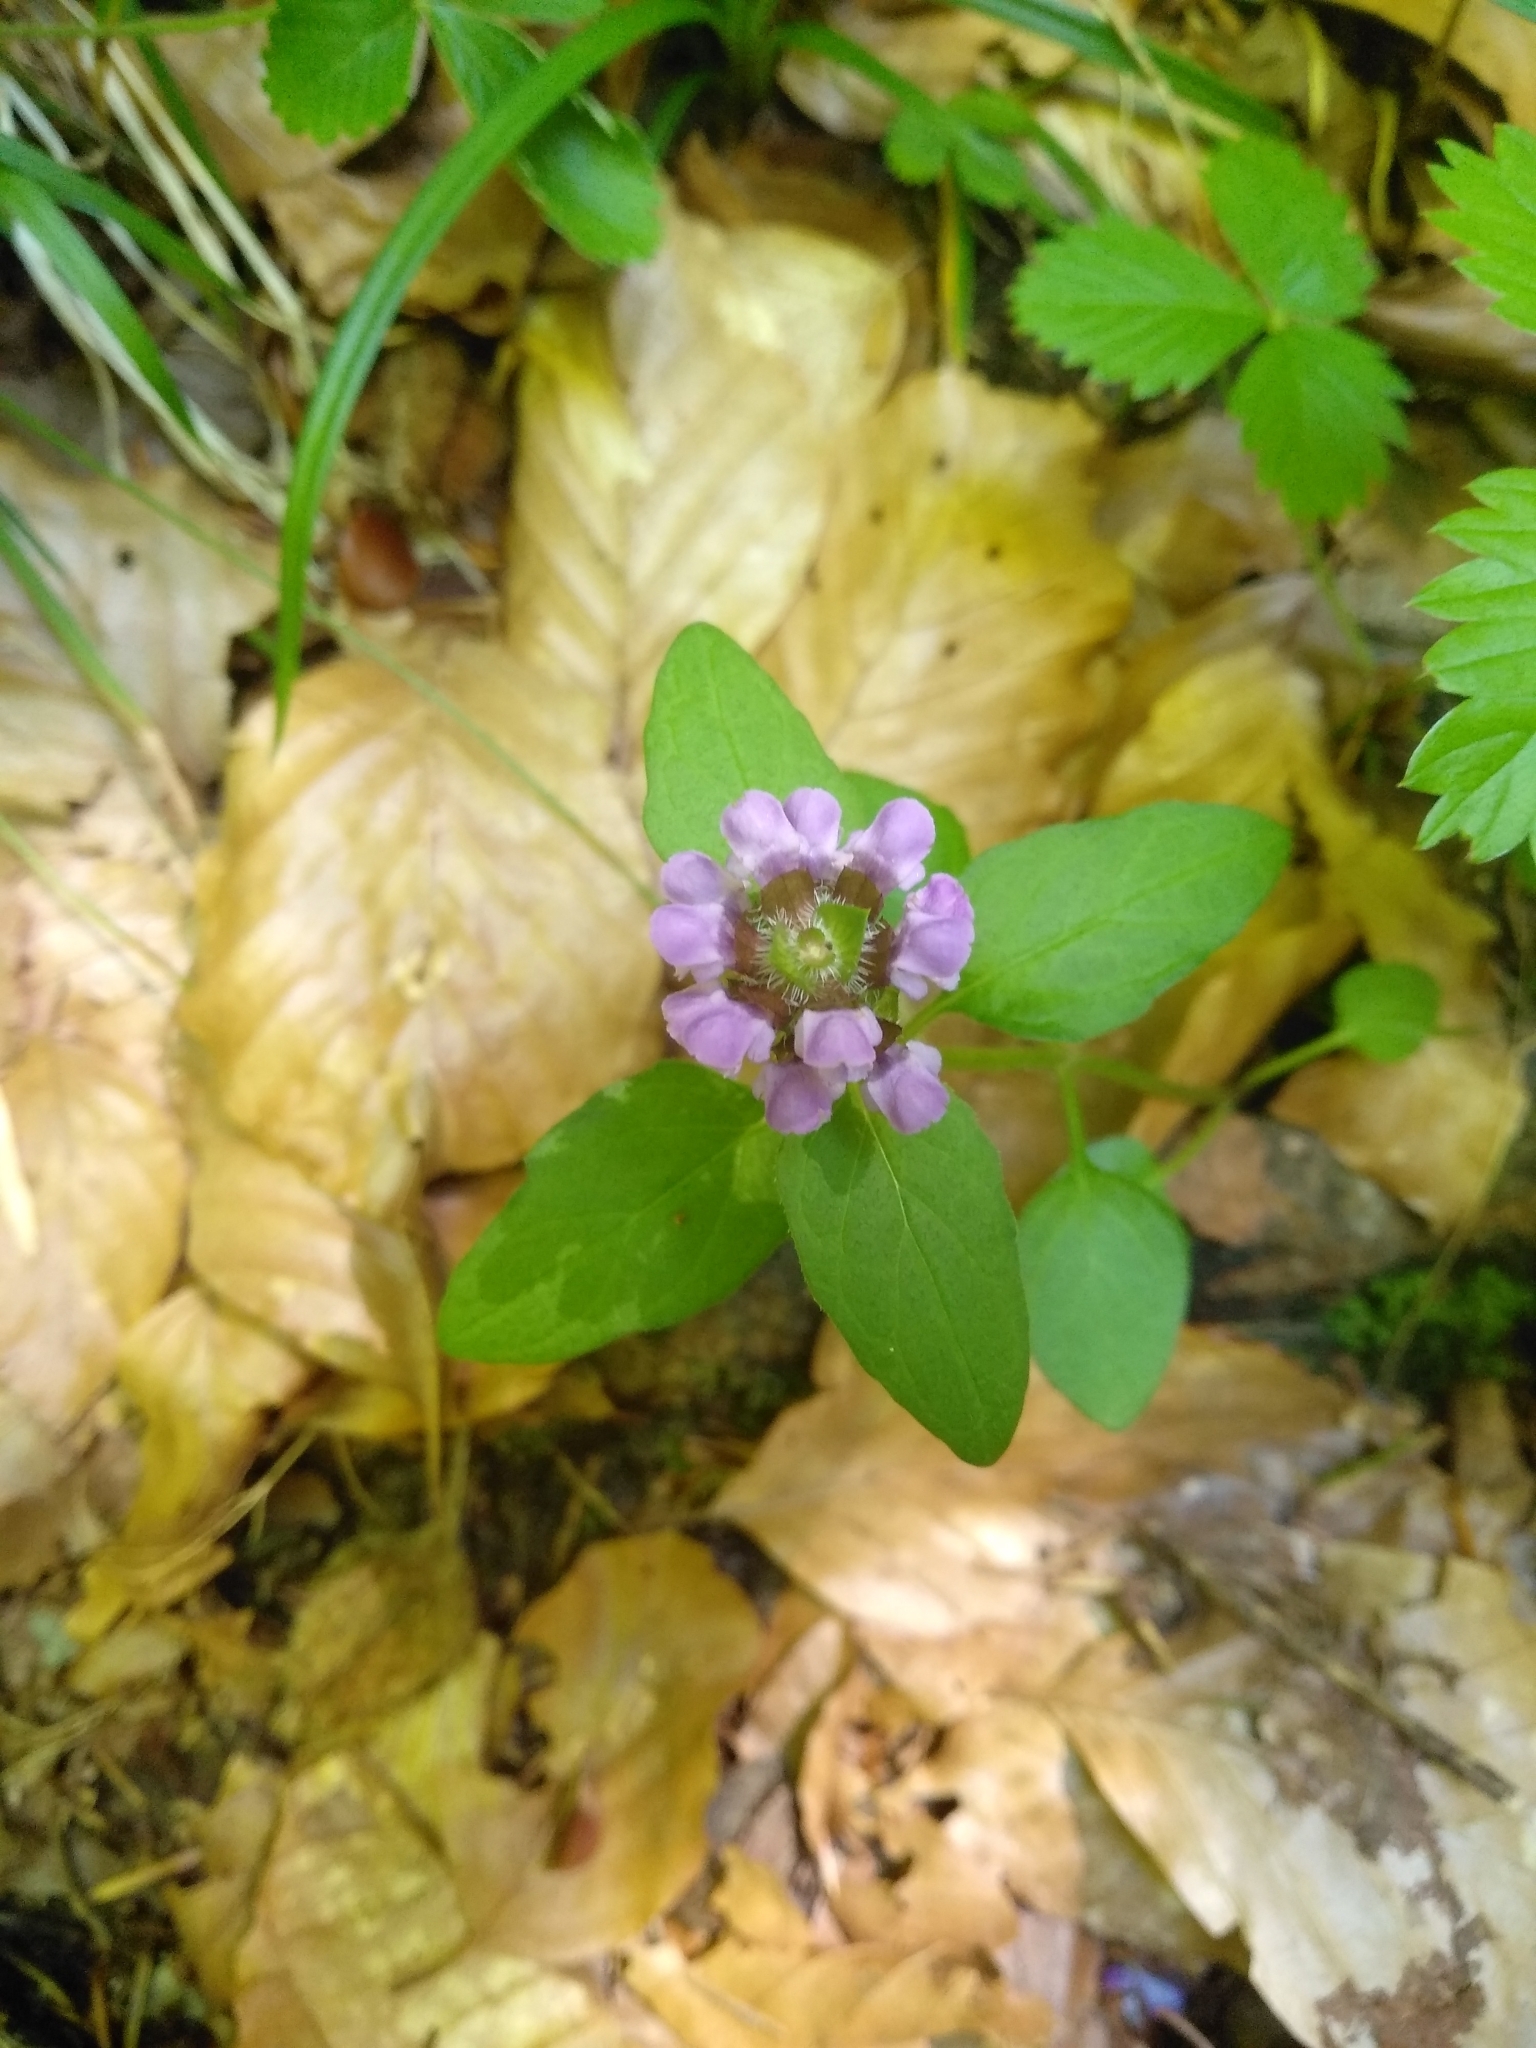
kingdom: Plantae
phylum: Tracheophyta
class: Magnoliopsida
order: Lamiales
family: Lamiaceae
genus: Prunella
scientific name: Prunella vulgaris
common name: Heal-all
